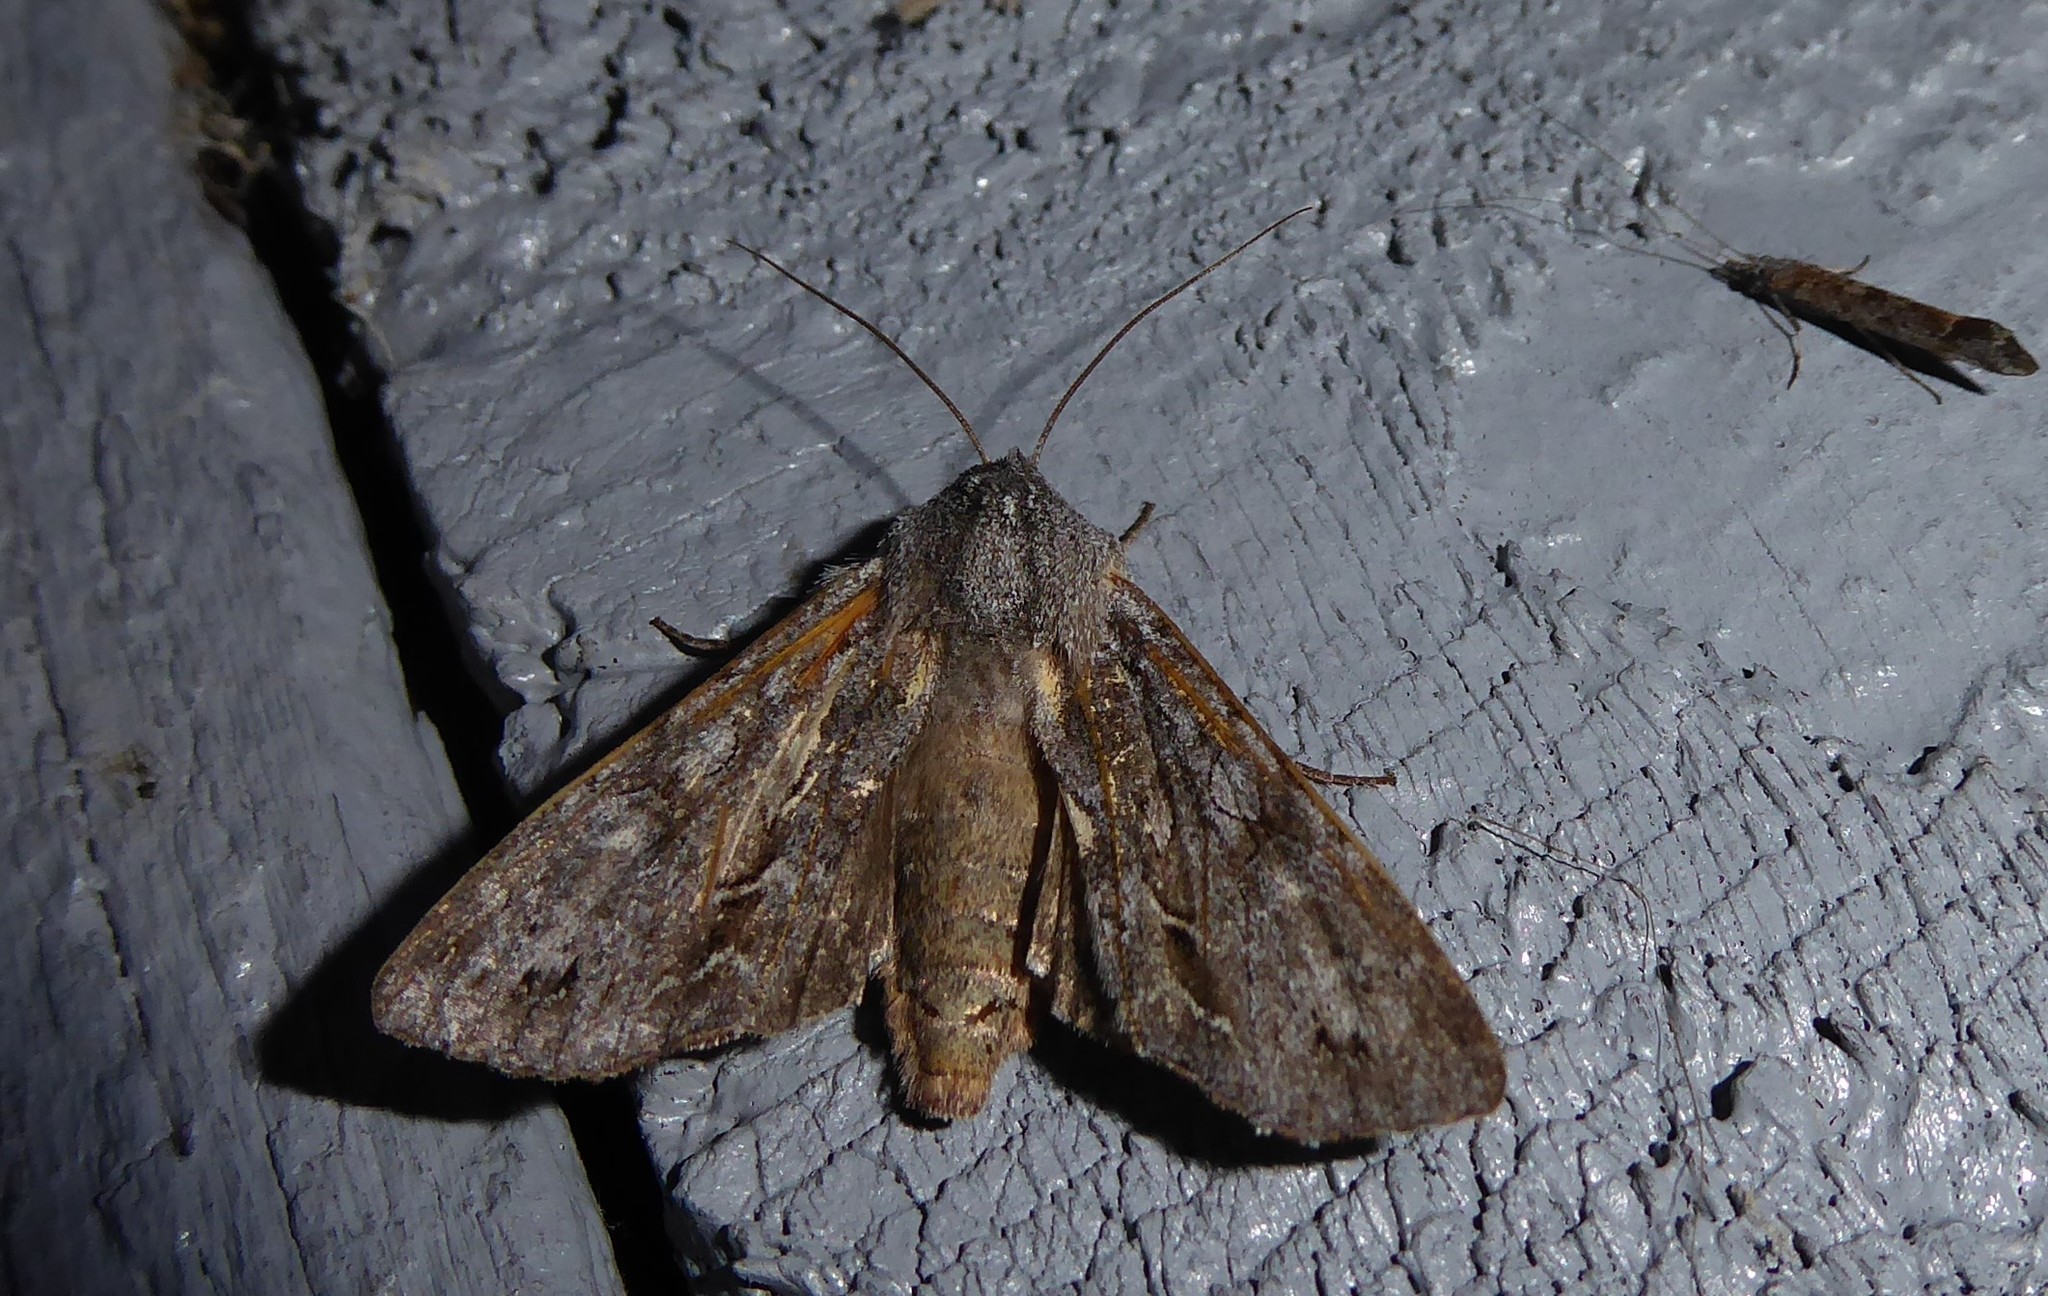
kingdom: Animalia
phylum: Arthropoda
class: Insecta
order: Lepidoptera
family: Noctuidae
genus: Ichneutica
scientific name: Ichneutica
